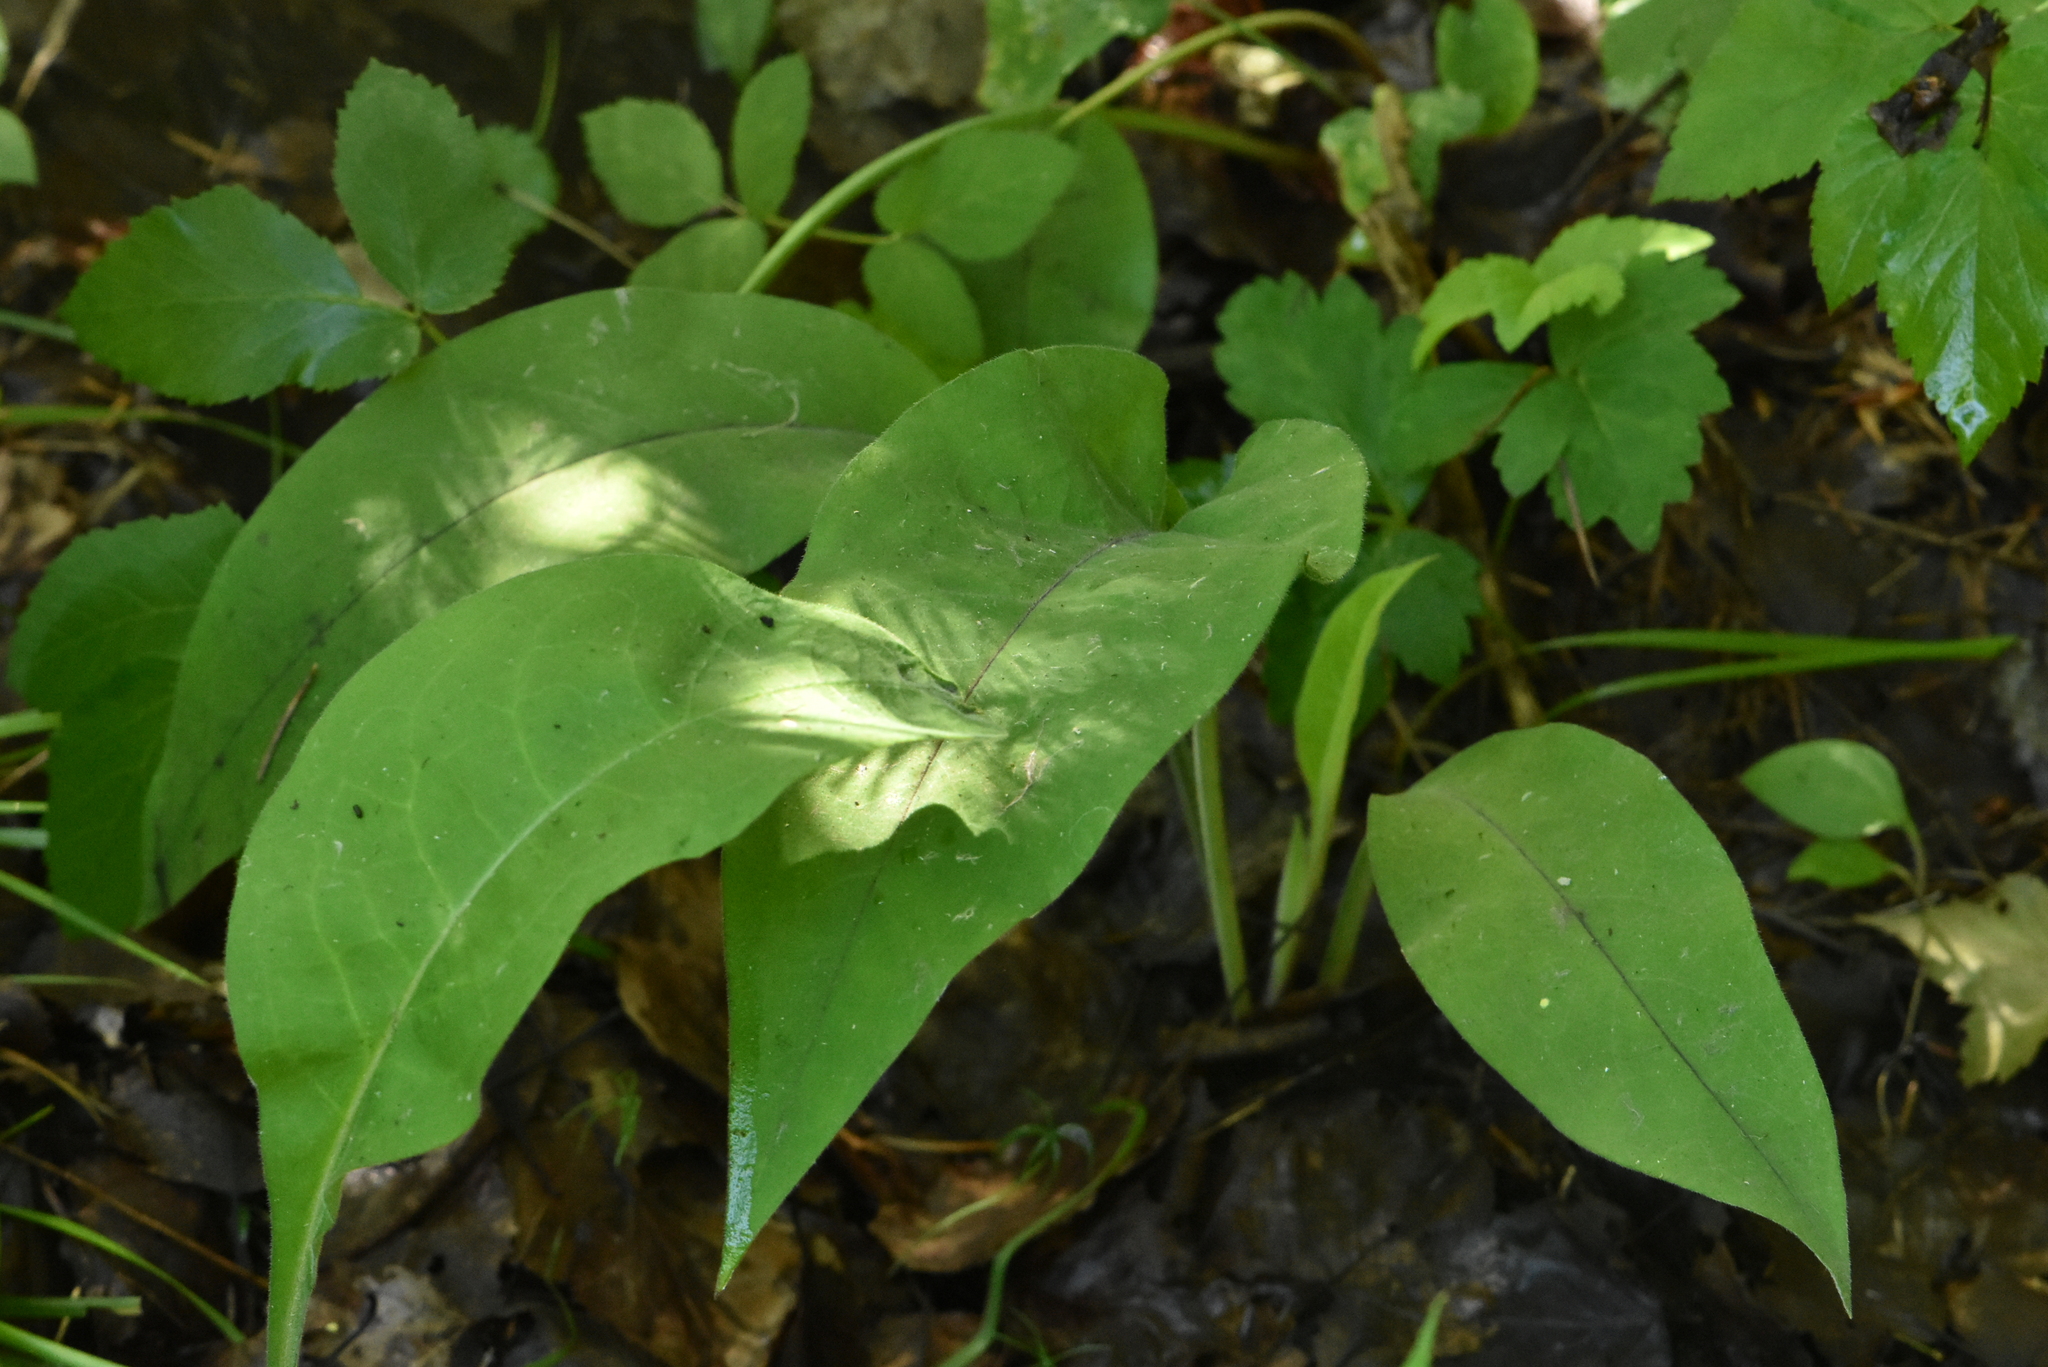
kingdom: Plantae
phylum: Tracheophyta
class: Magnoliopsida
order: Boraginales
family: Boraginaceae
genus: Pulmonaria
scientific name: Pulmonaria mollis
